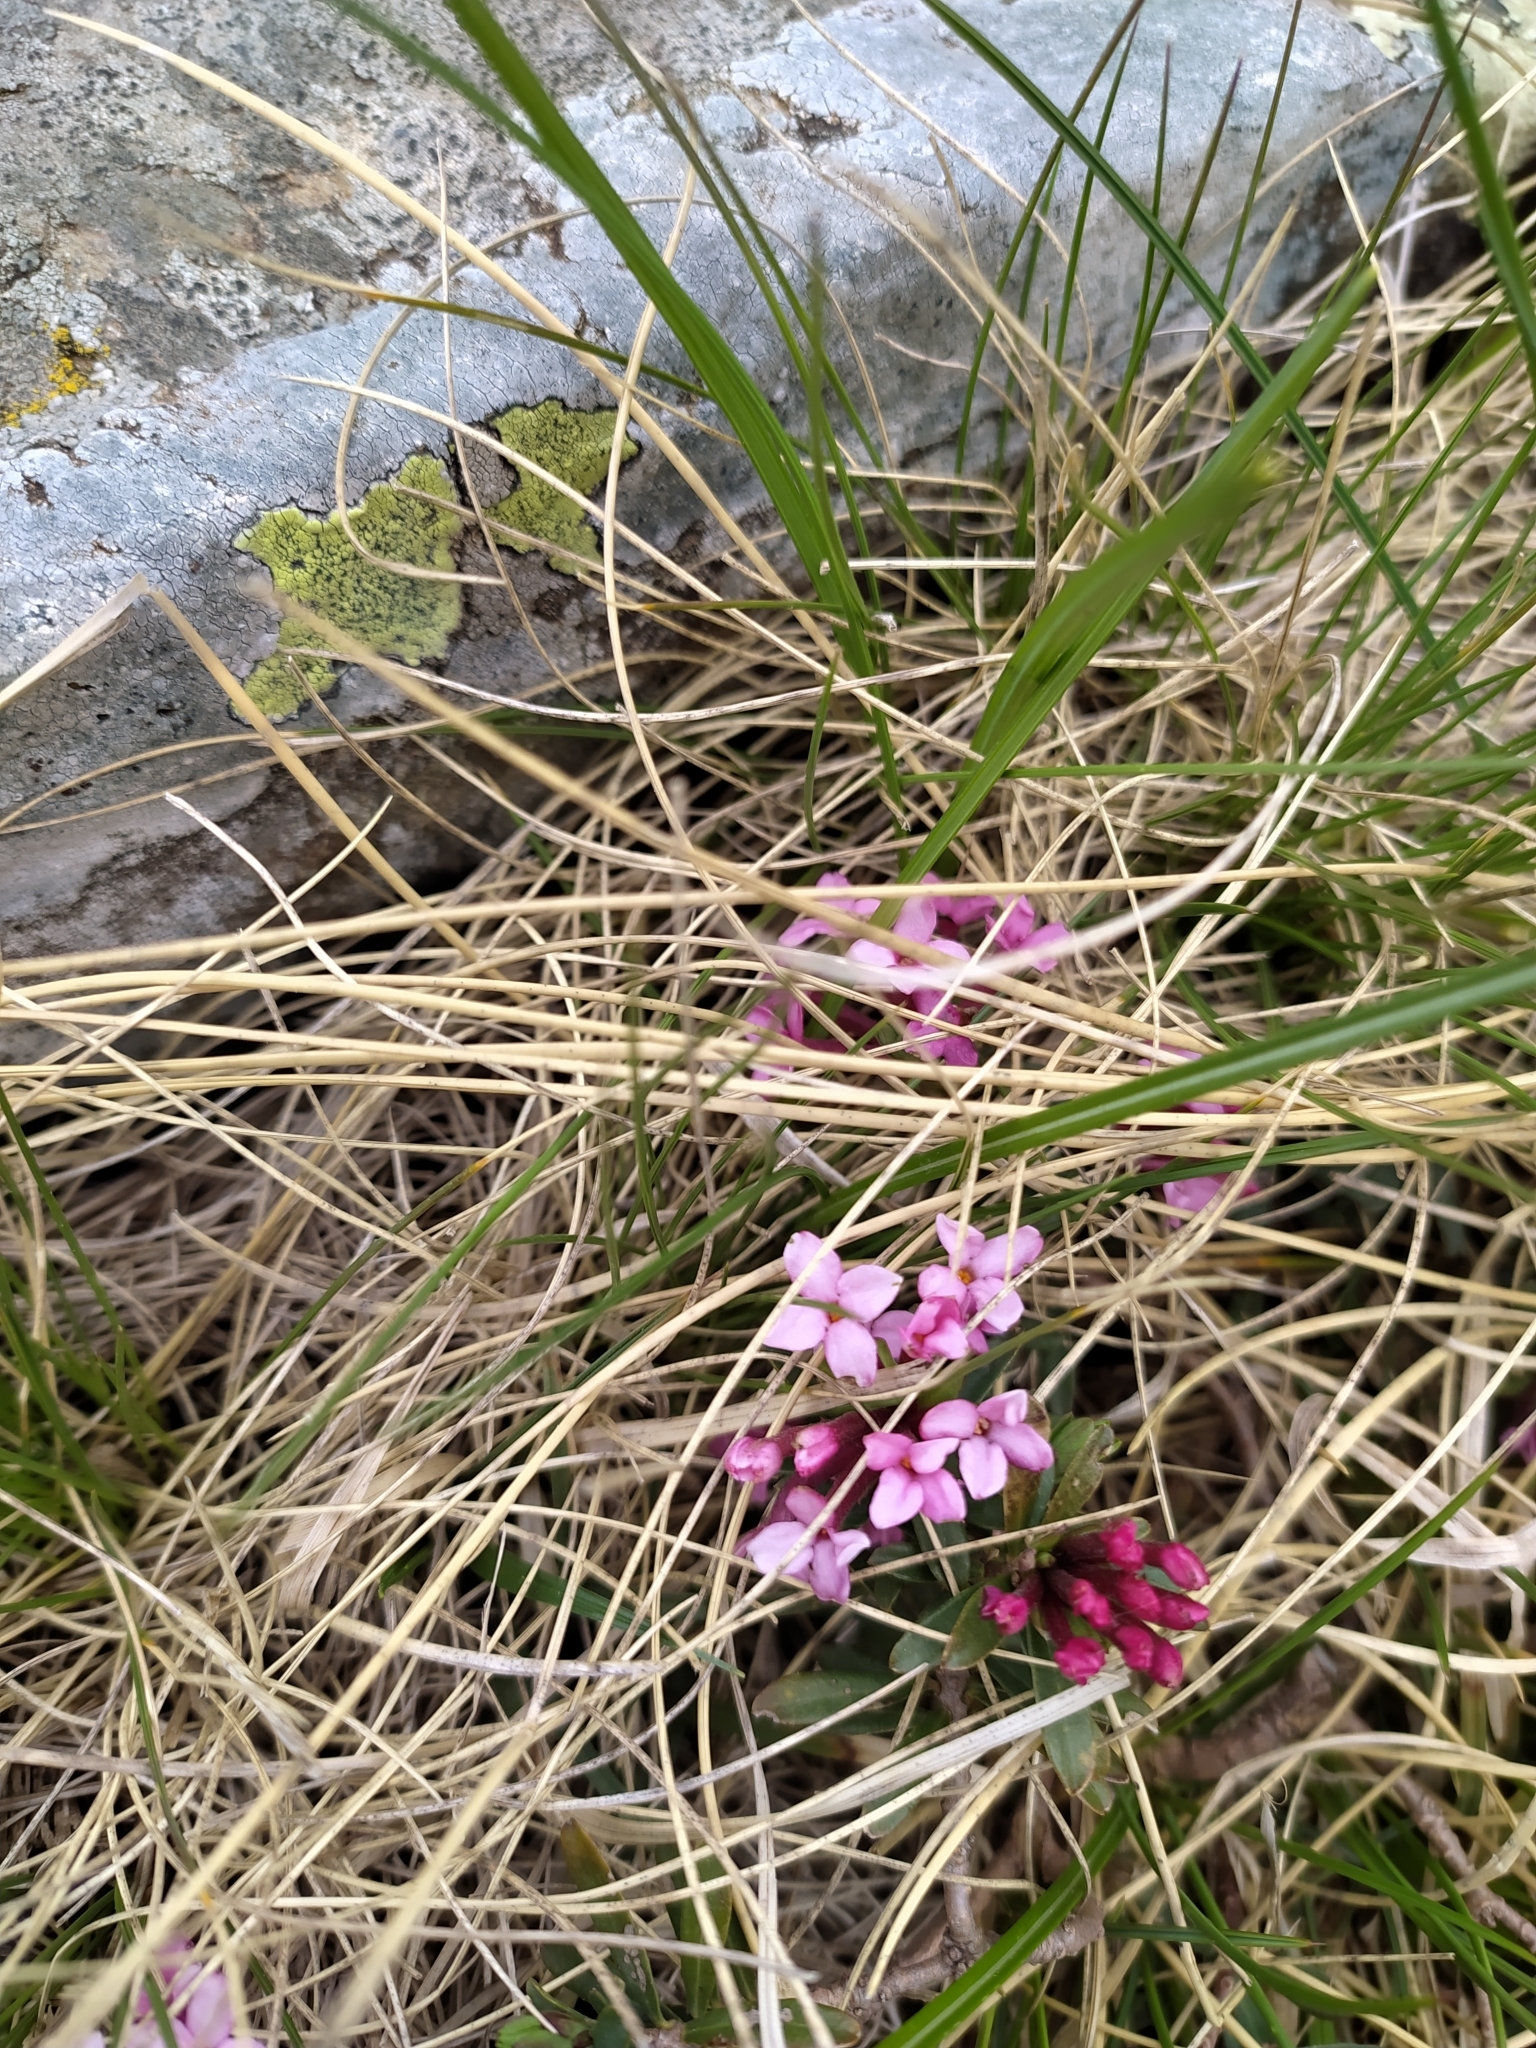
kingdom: Plantae
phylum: Tracheophyta
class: Magnoliopsida
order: Malvales
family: Thymelaeaceae
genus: Daphne
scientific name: Daphne mezereum
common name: Mezereon
